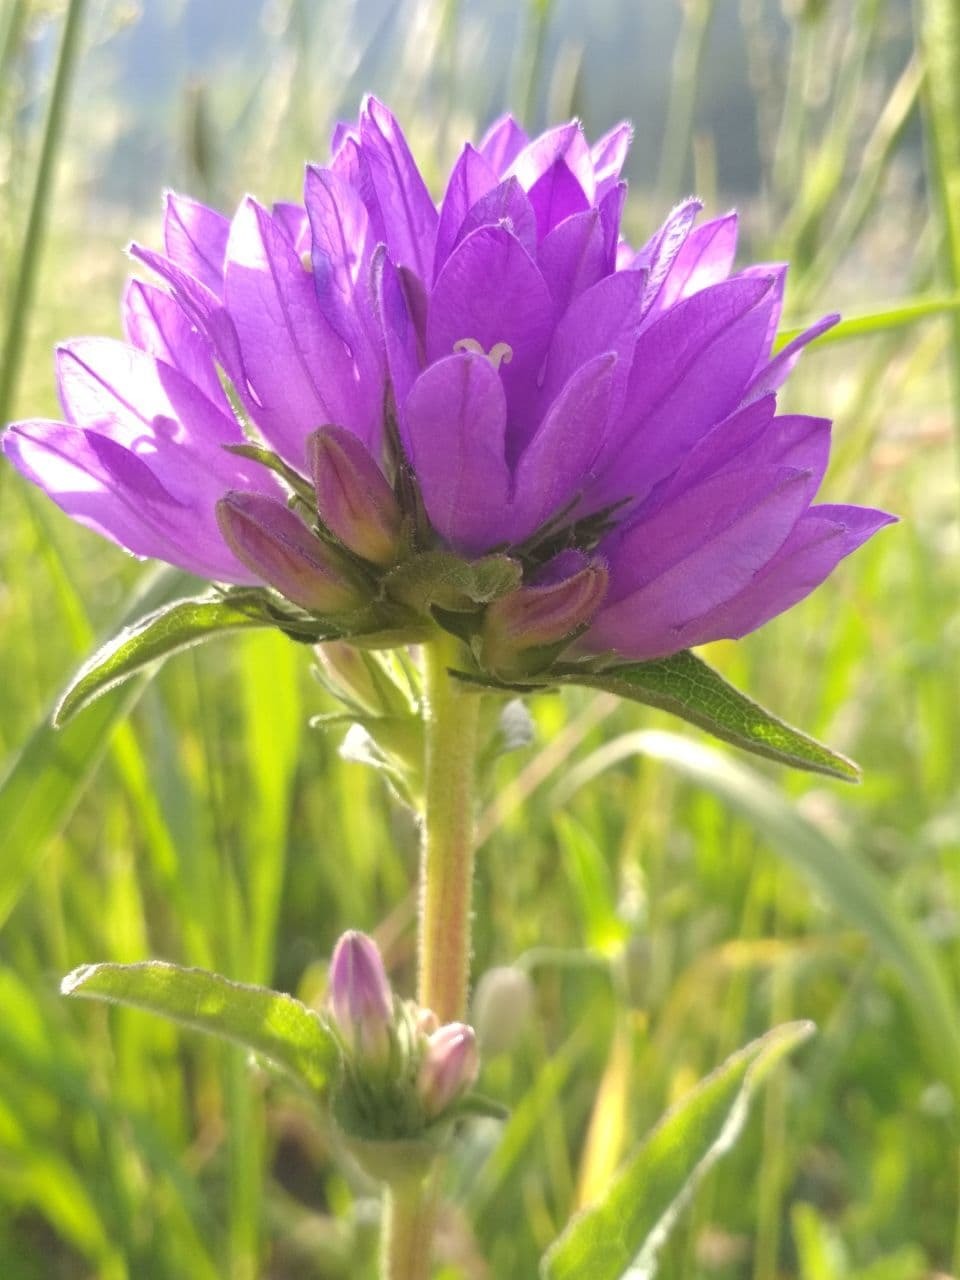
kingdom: Plantae
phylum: Tracheophyta
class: Magnoliopsida
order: Asterales
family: Campanulaceae
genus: Campanula
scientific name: Campanula glomerata
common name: Clustered bellflower
